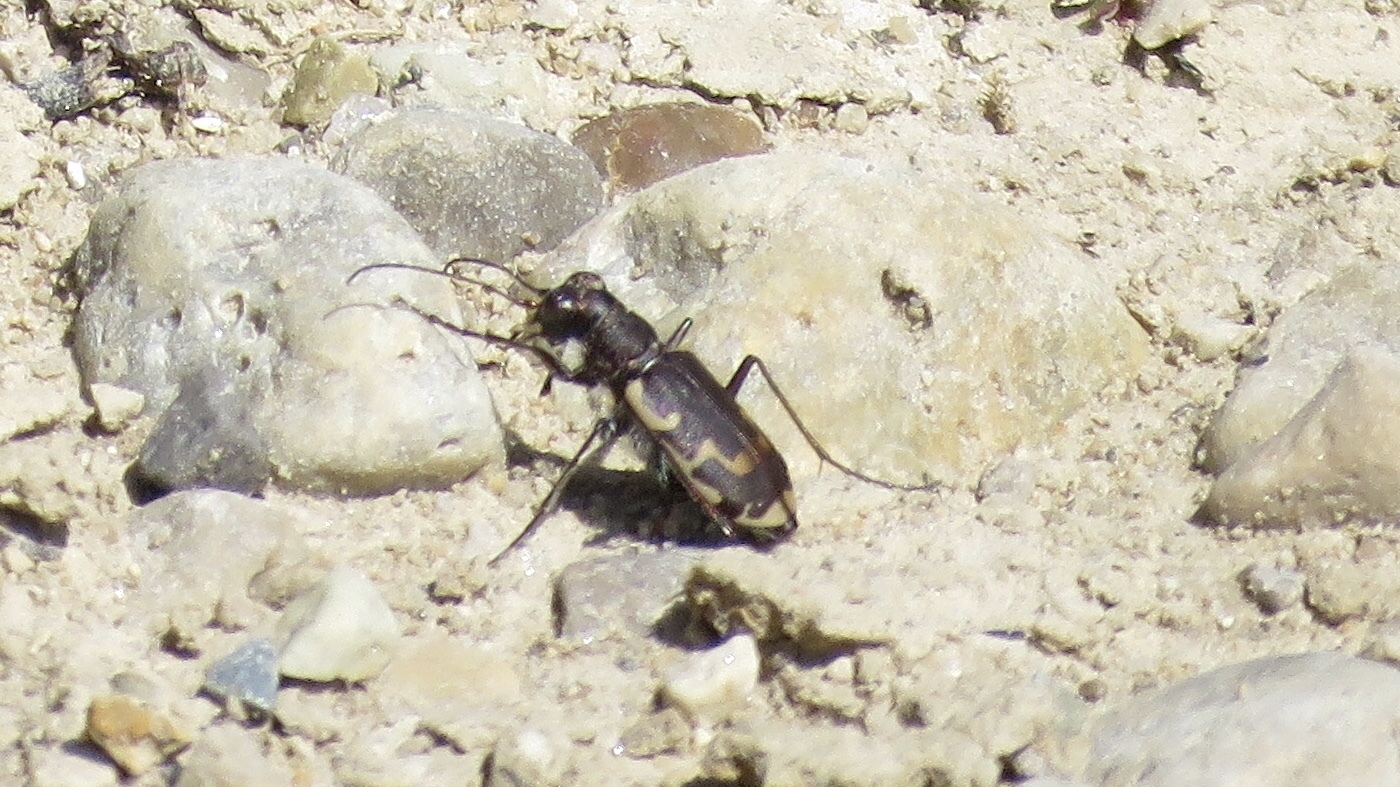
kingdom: Animalia
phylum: Arthropoda
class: Insecta
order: Coleoptera
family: Carabidae
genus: Cicindela
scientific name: Cicindela repanda
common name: Bronzed tiger beetle
